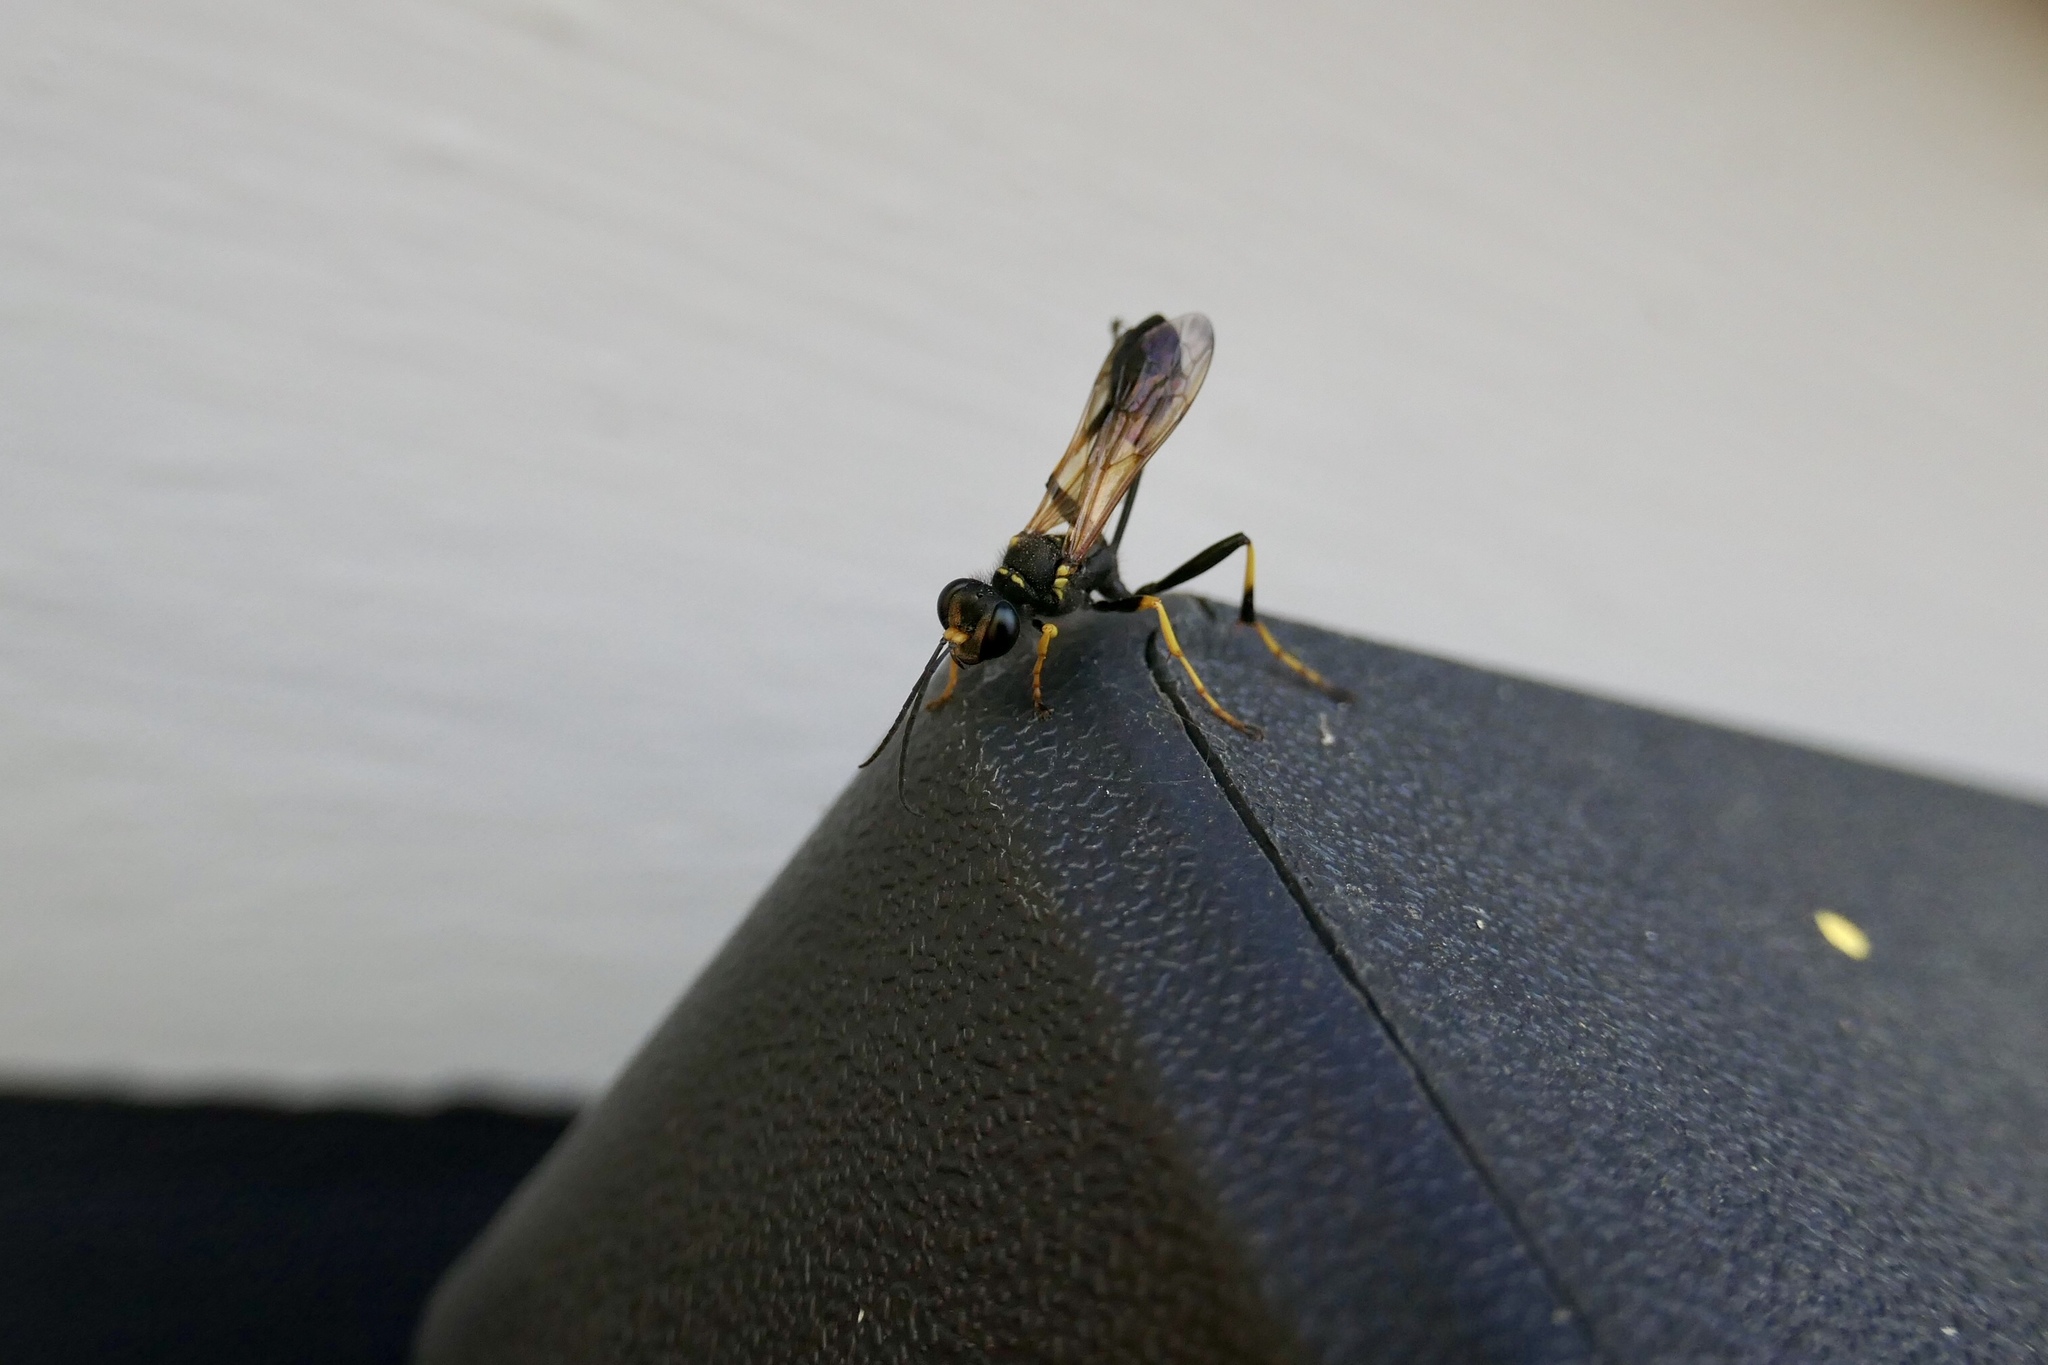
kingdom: Animalia
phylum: Arthropoda
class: Insecta
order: Hymenoptera
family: Sphecidae
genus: Sceliphron
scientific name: Sceliphron caementarium
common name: Mud dauber
